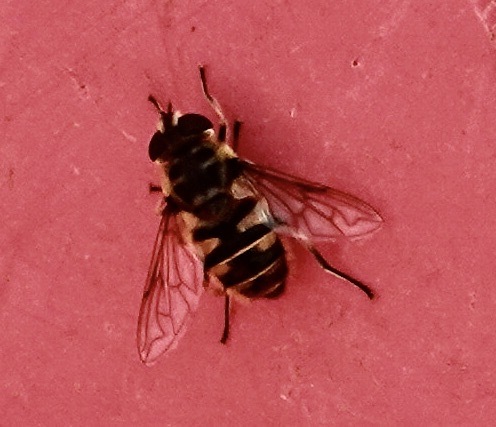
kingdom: Animalia
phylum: Arthropoda
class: Insecta
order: Diptera
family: Syrphidae
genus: Myathropa
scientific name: Myathropa florea
